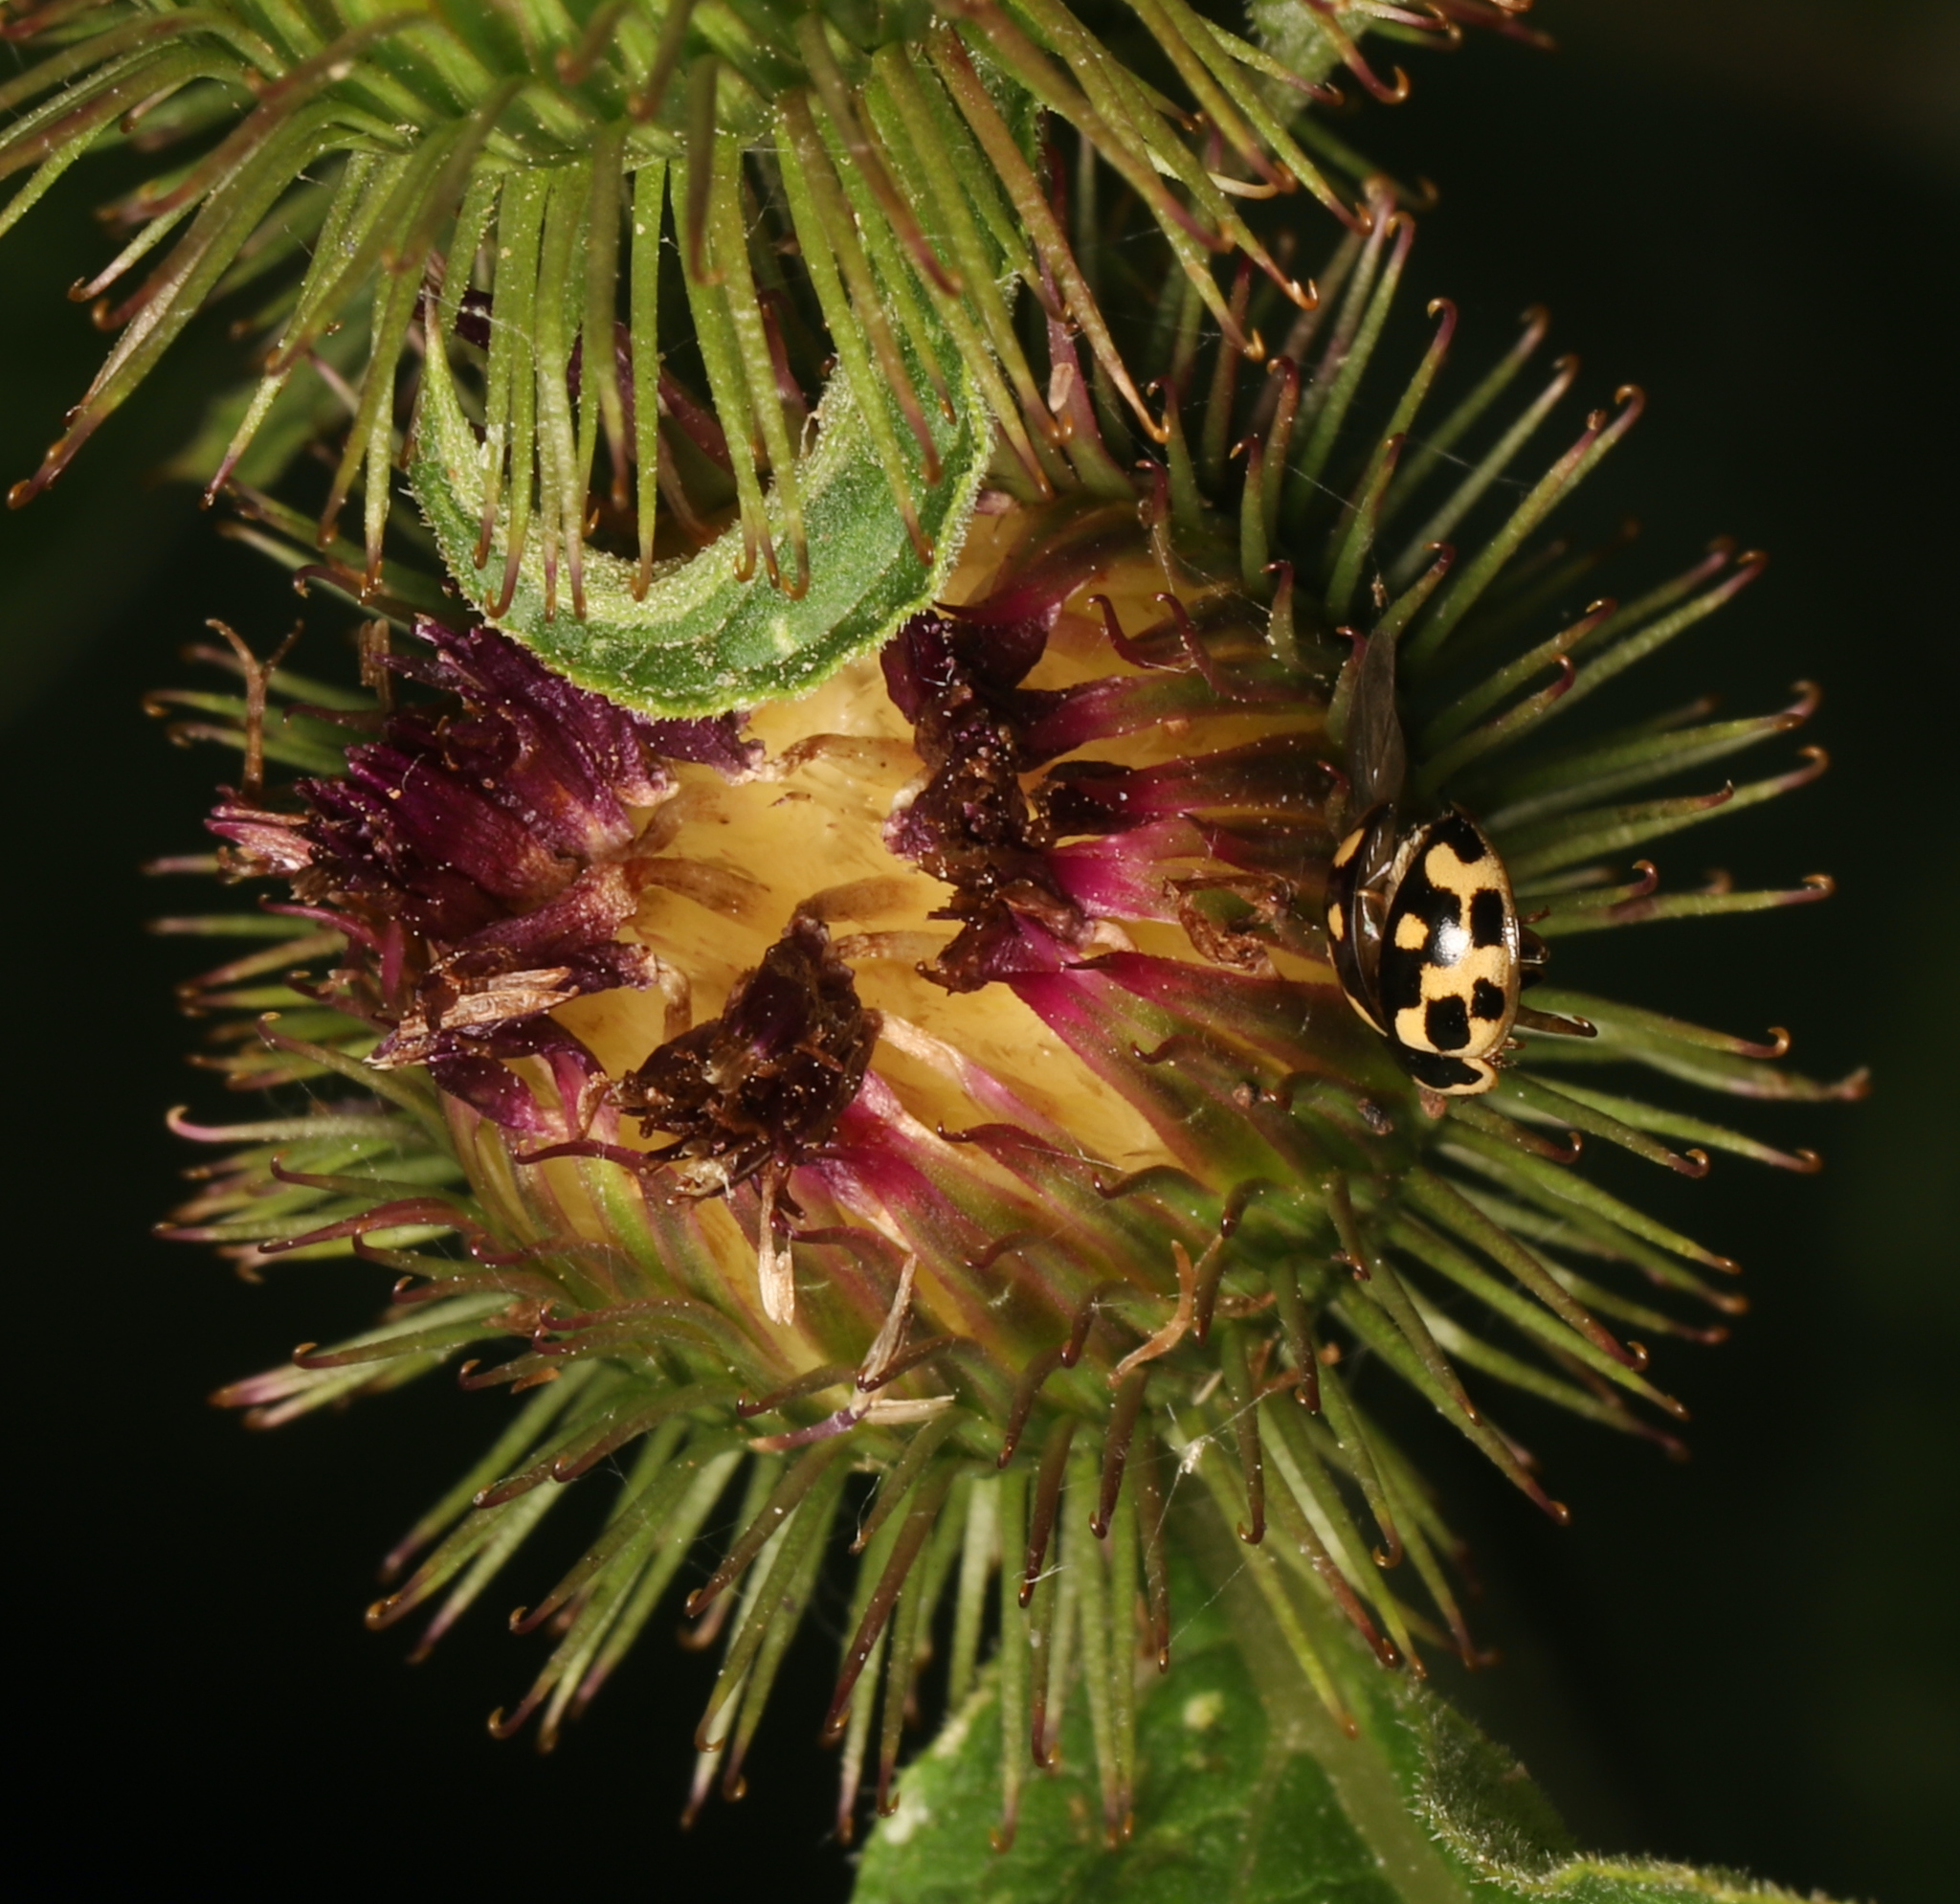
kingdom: Animalia
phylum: Arthropoda
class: Insecta
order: Coleoptera
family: Coccinellidae
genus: Propylaea
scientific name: Propylaea quatuordecimpunctata
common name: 14-spotted ladybird beetle
